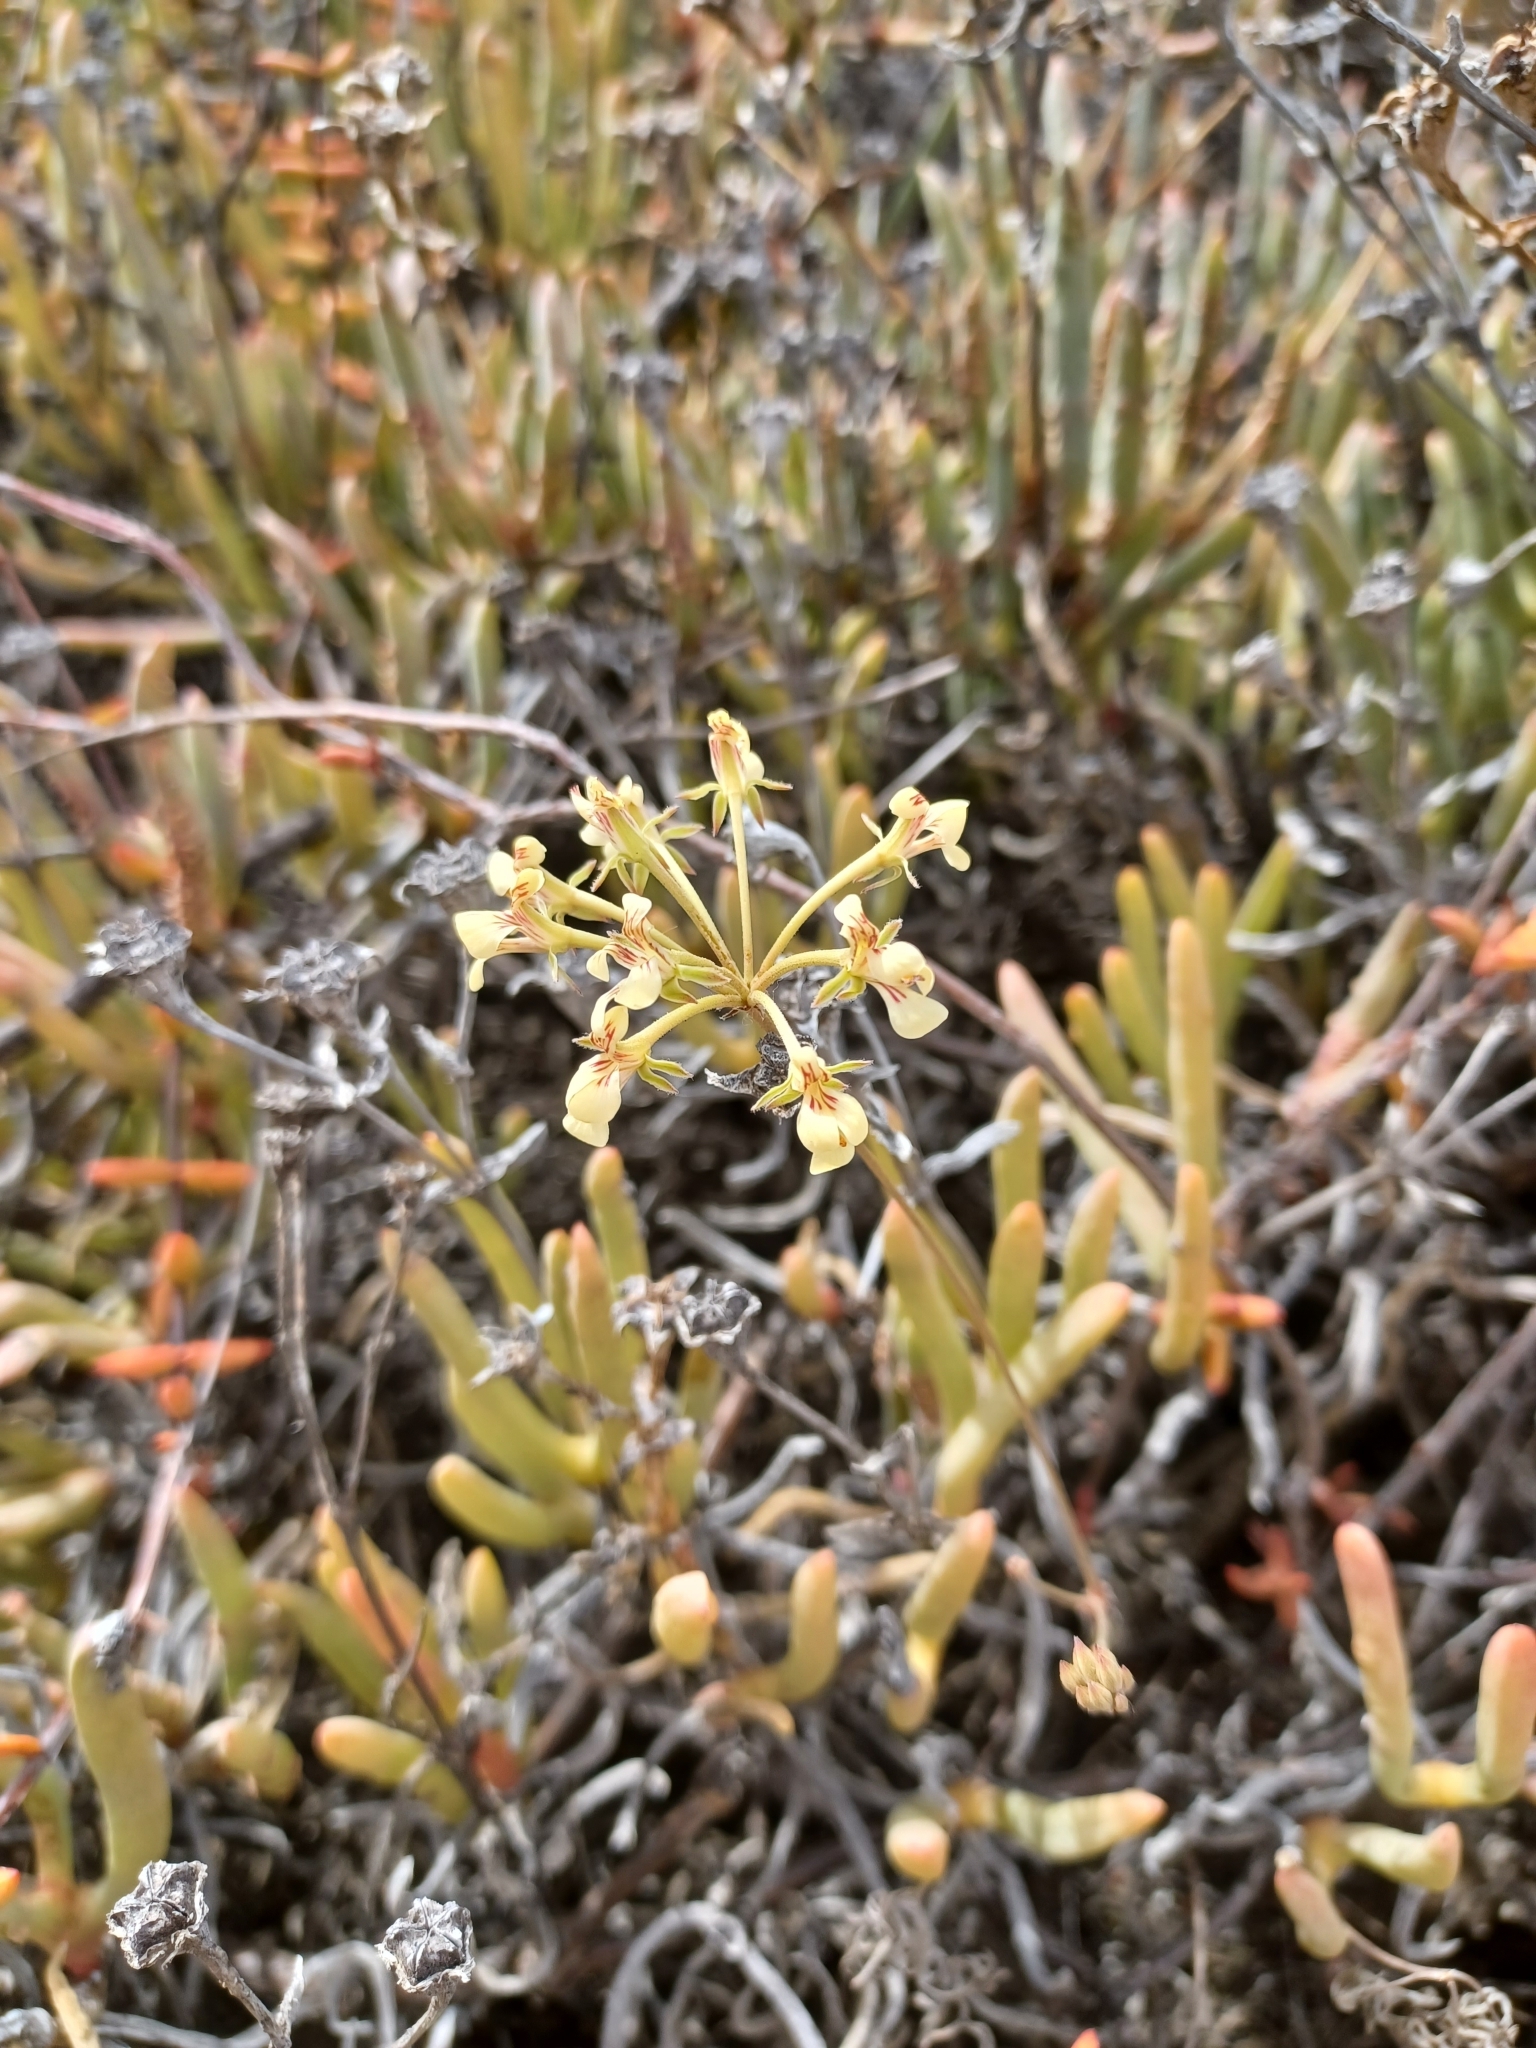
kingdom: Plantae
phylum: Tracheophyta
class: Magnoliopsida
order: Geraniales
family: Geraniaceae
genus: Pelargonium
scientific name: Pelargonium luteolum
